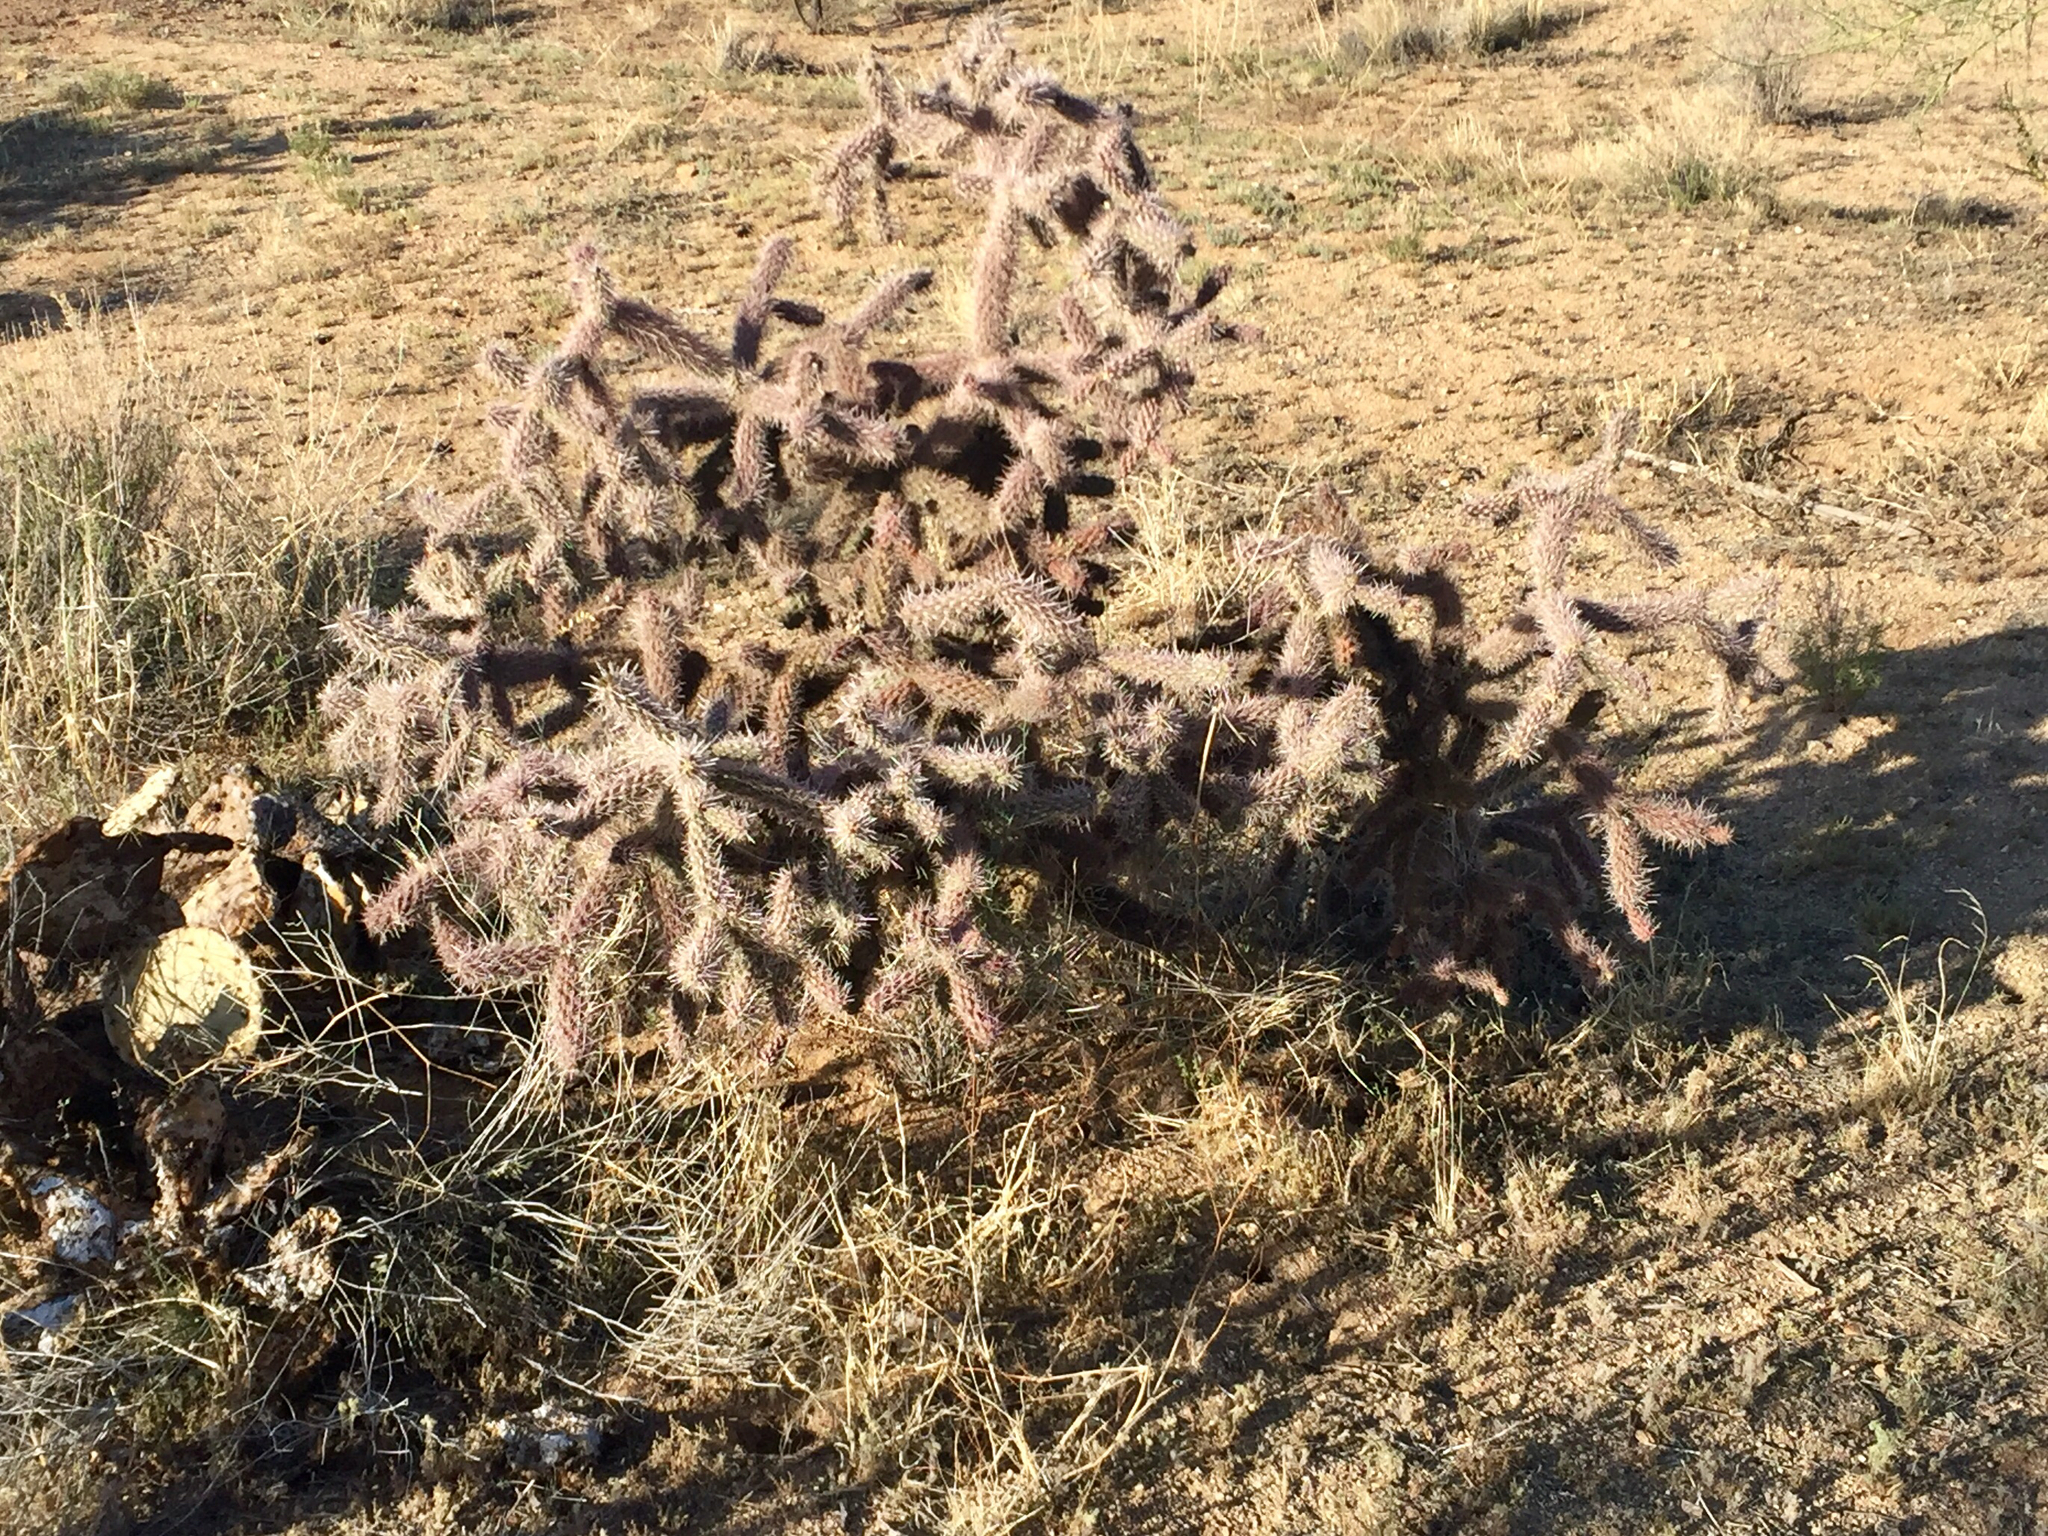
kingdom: Plantae
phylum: Tracheophyta
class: Magnoliopsida
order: Caryophyllales
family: Cactaceae
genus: Cylindropuntia
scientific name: Cylindropuntia imbricata
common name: Candelabrum cactus
